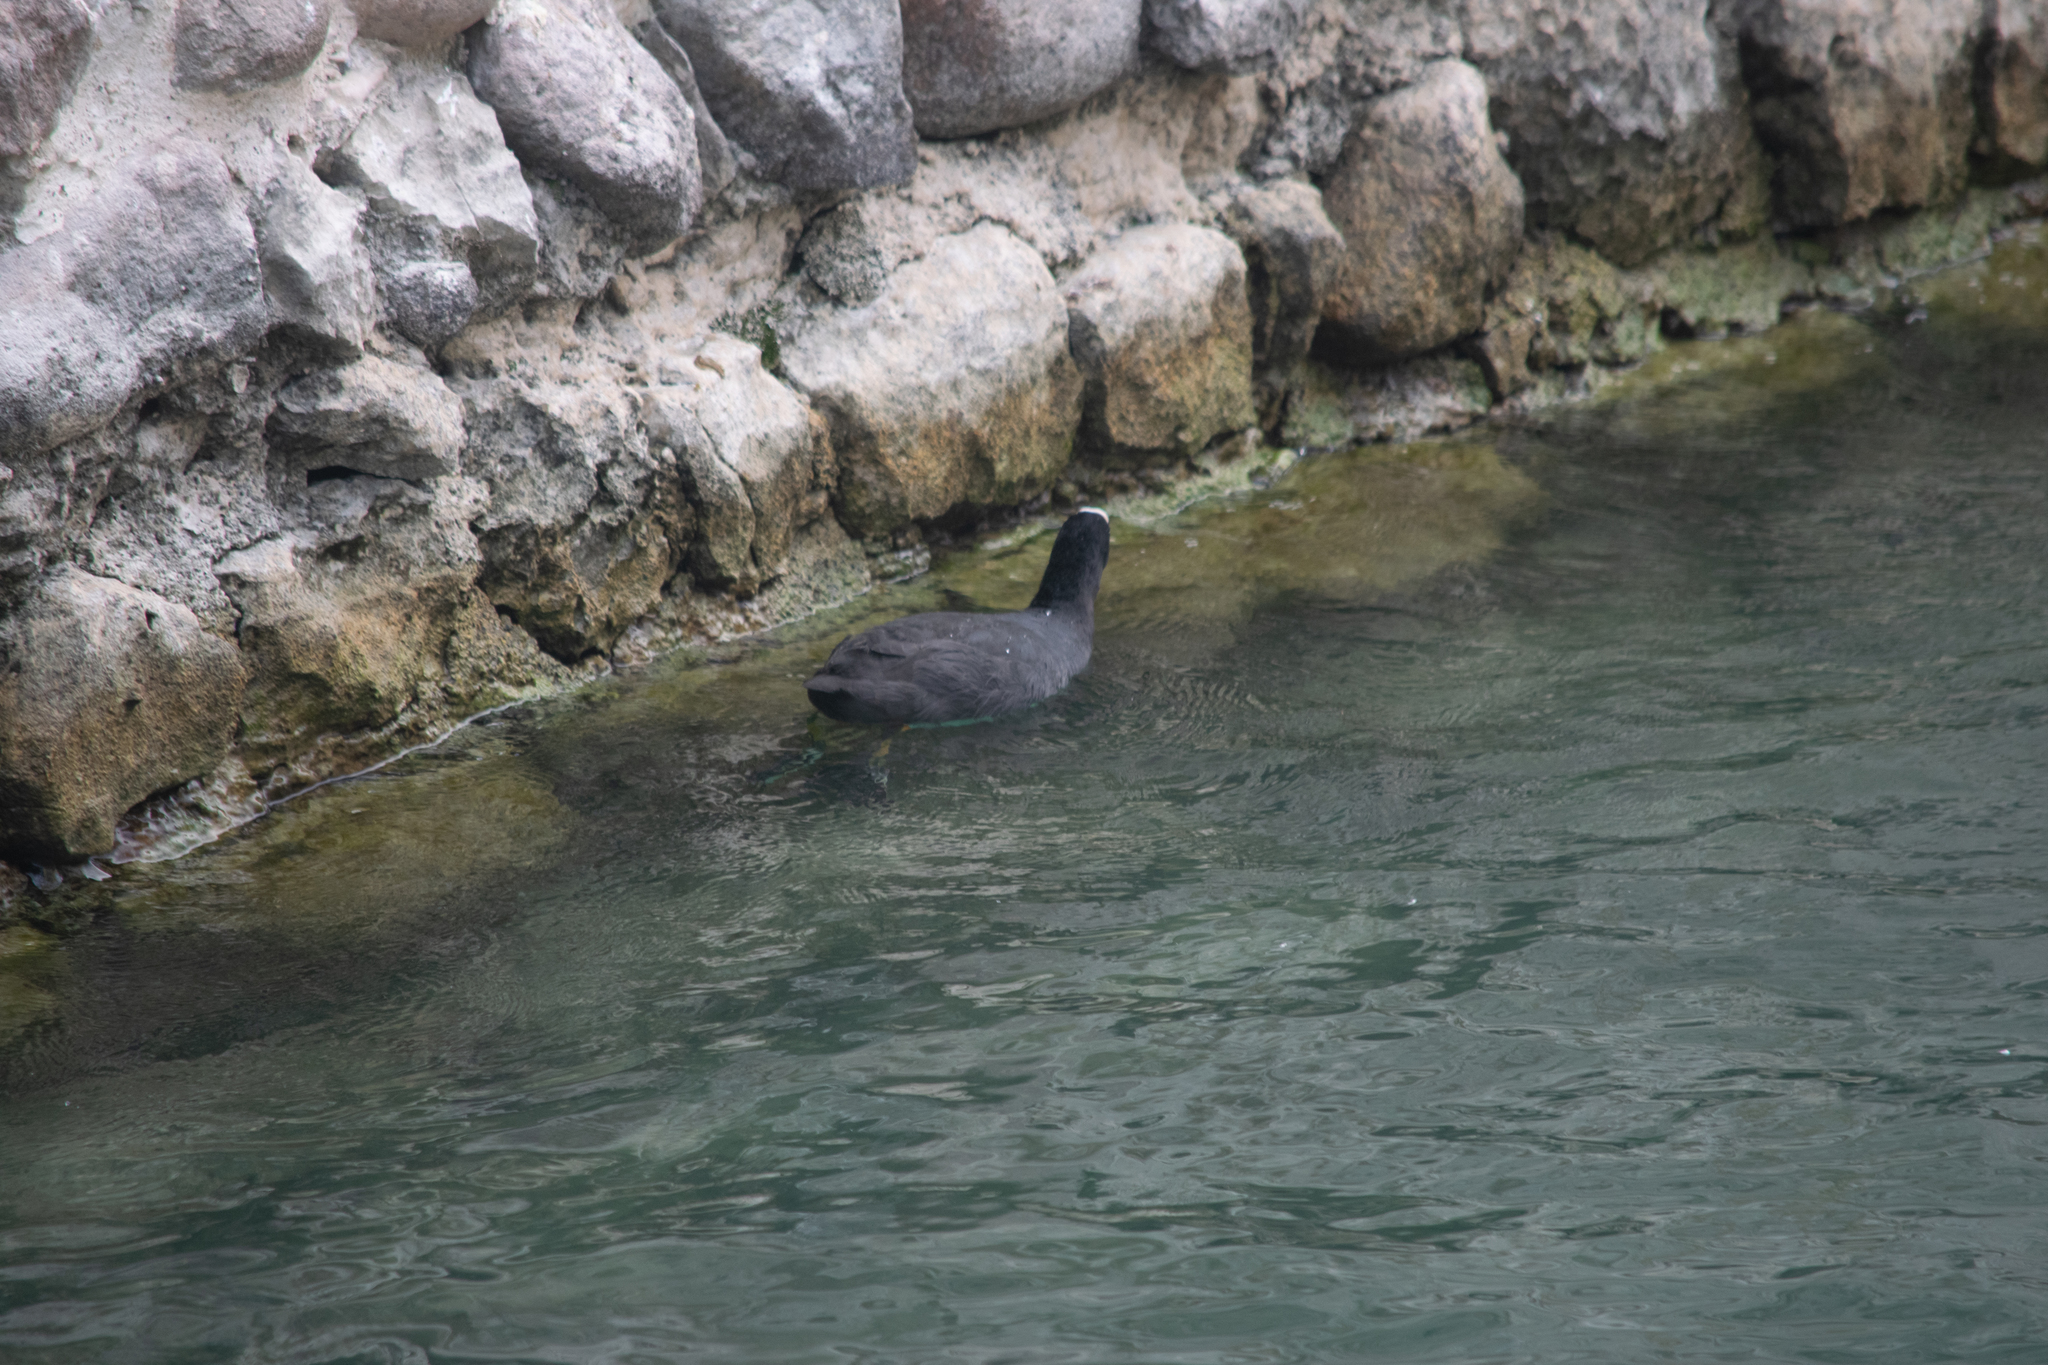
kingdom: Animalia
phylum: Chordata
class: Aves
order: Gruiformes
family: Rallidae
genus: Fulica
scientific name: Fulica atra
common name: Eurasian coot
